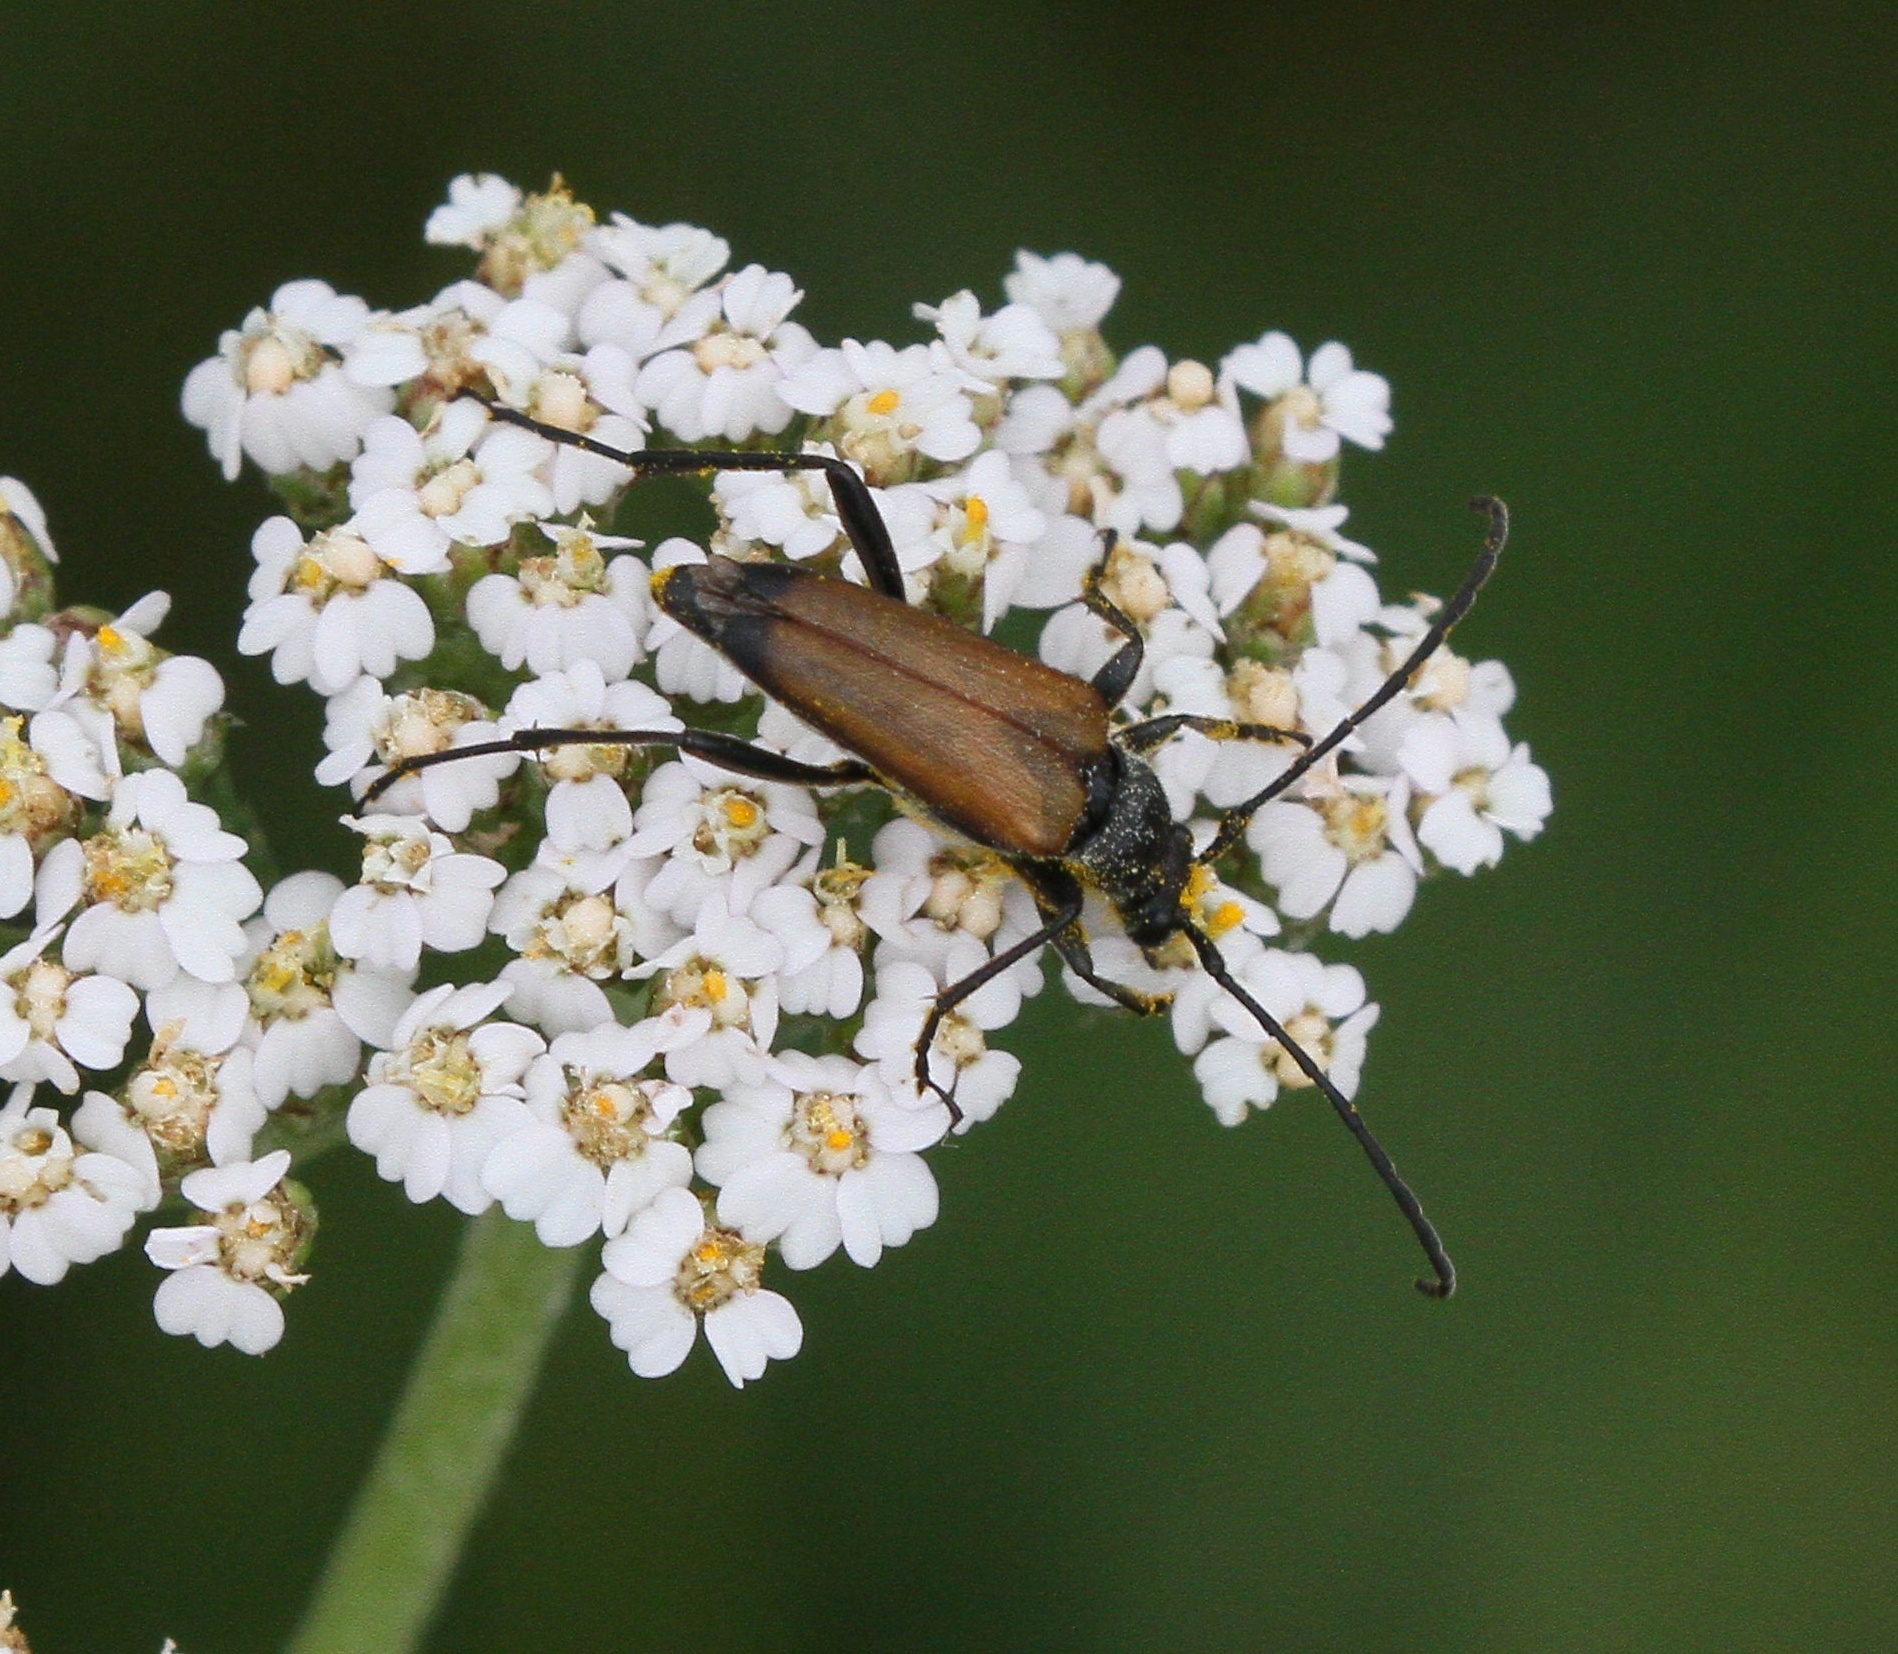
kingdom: Animalia
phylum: Arthropoda
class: Insecta
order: Coleoptera
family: Cerambycidae
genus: Anastrangalia
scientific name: Anastrangalia sanguinolenta
